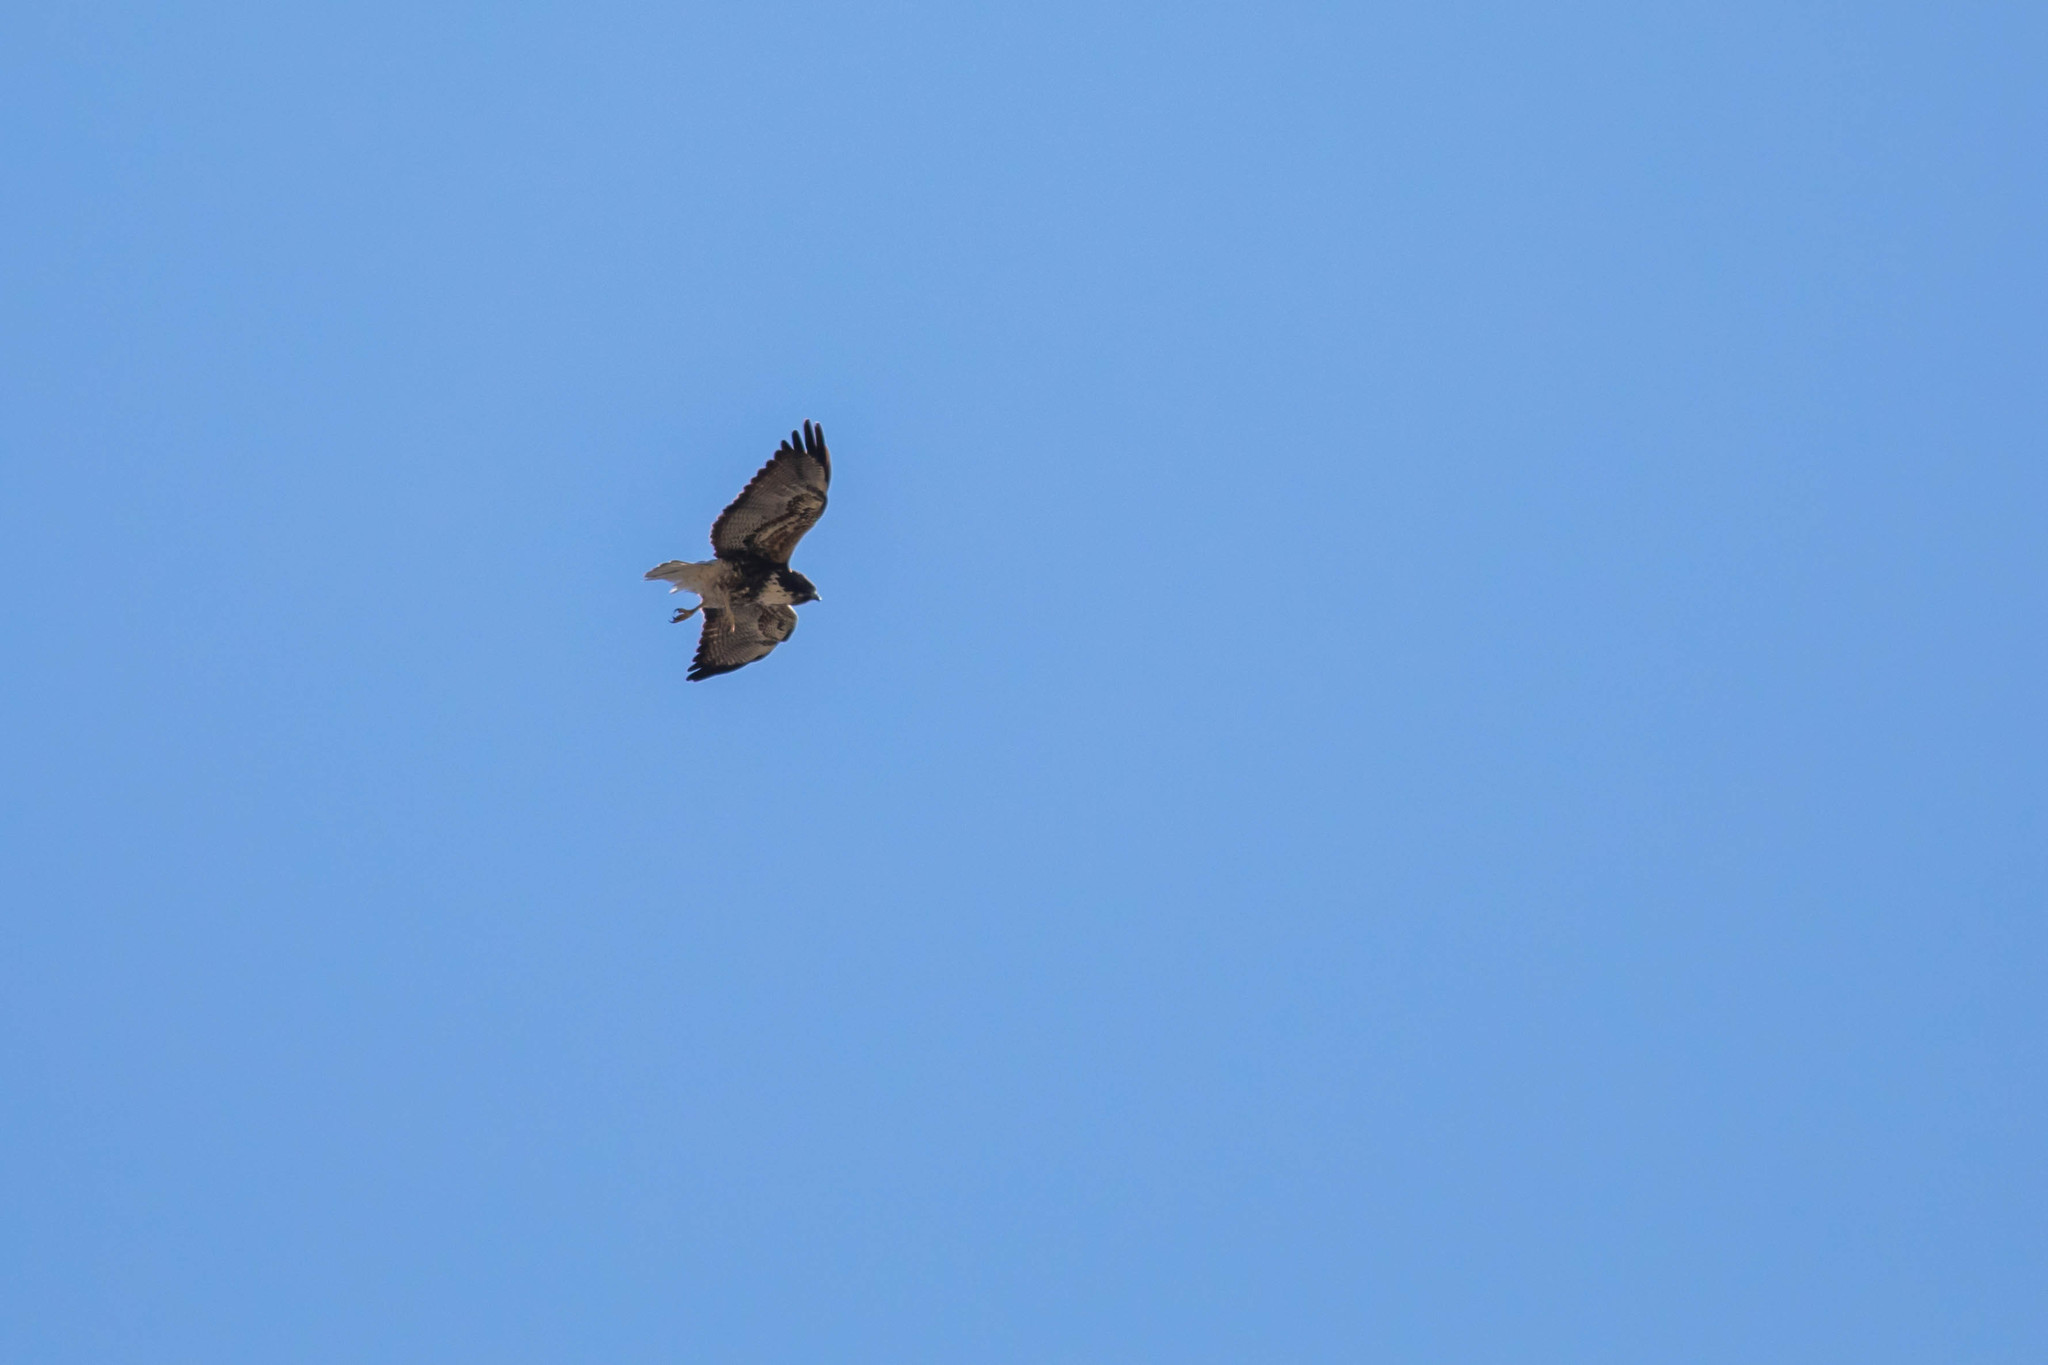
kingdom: Animalia
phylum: Chordata
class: Aves
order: Accipitriformes
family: Accipitridae
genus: Buteo
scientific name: Buteo albicaudatus
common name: White-tailed hawk
